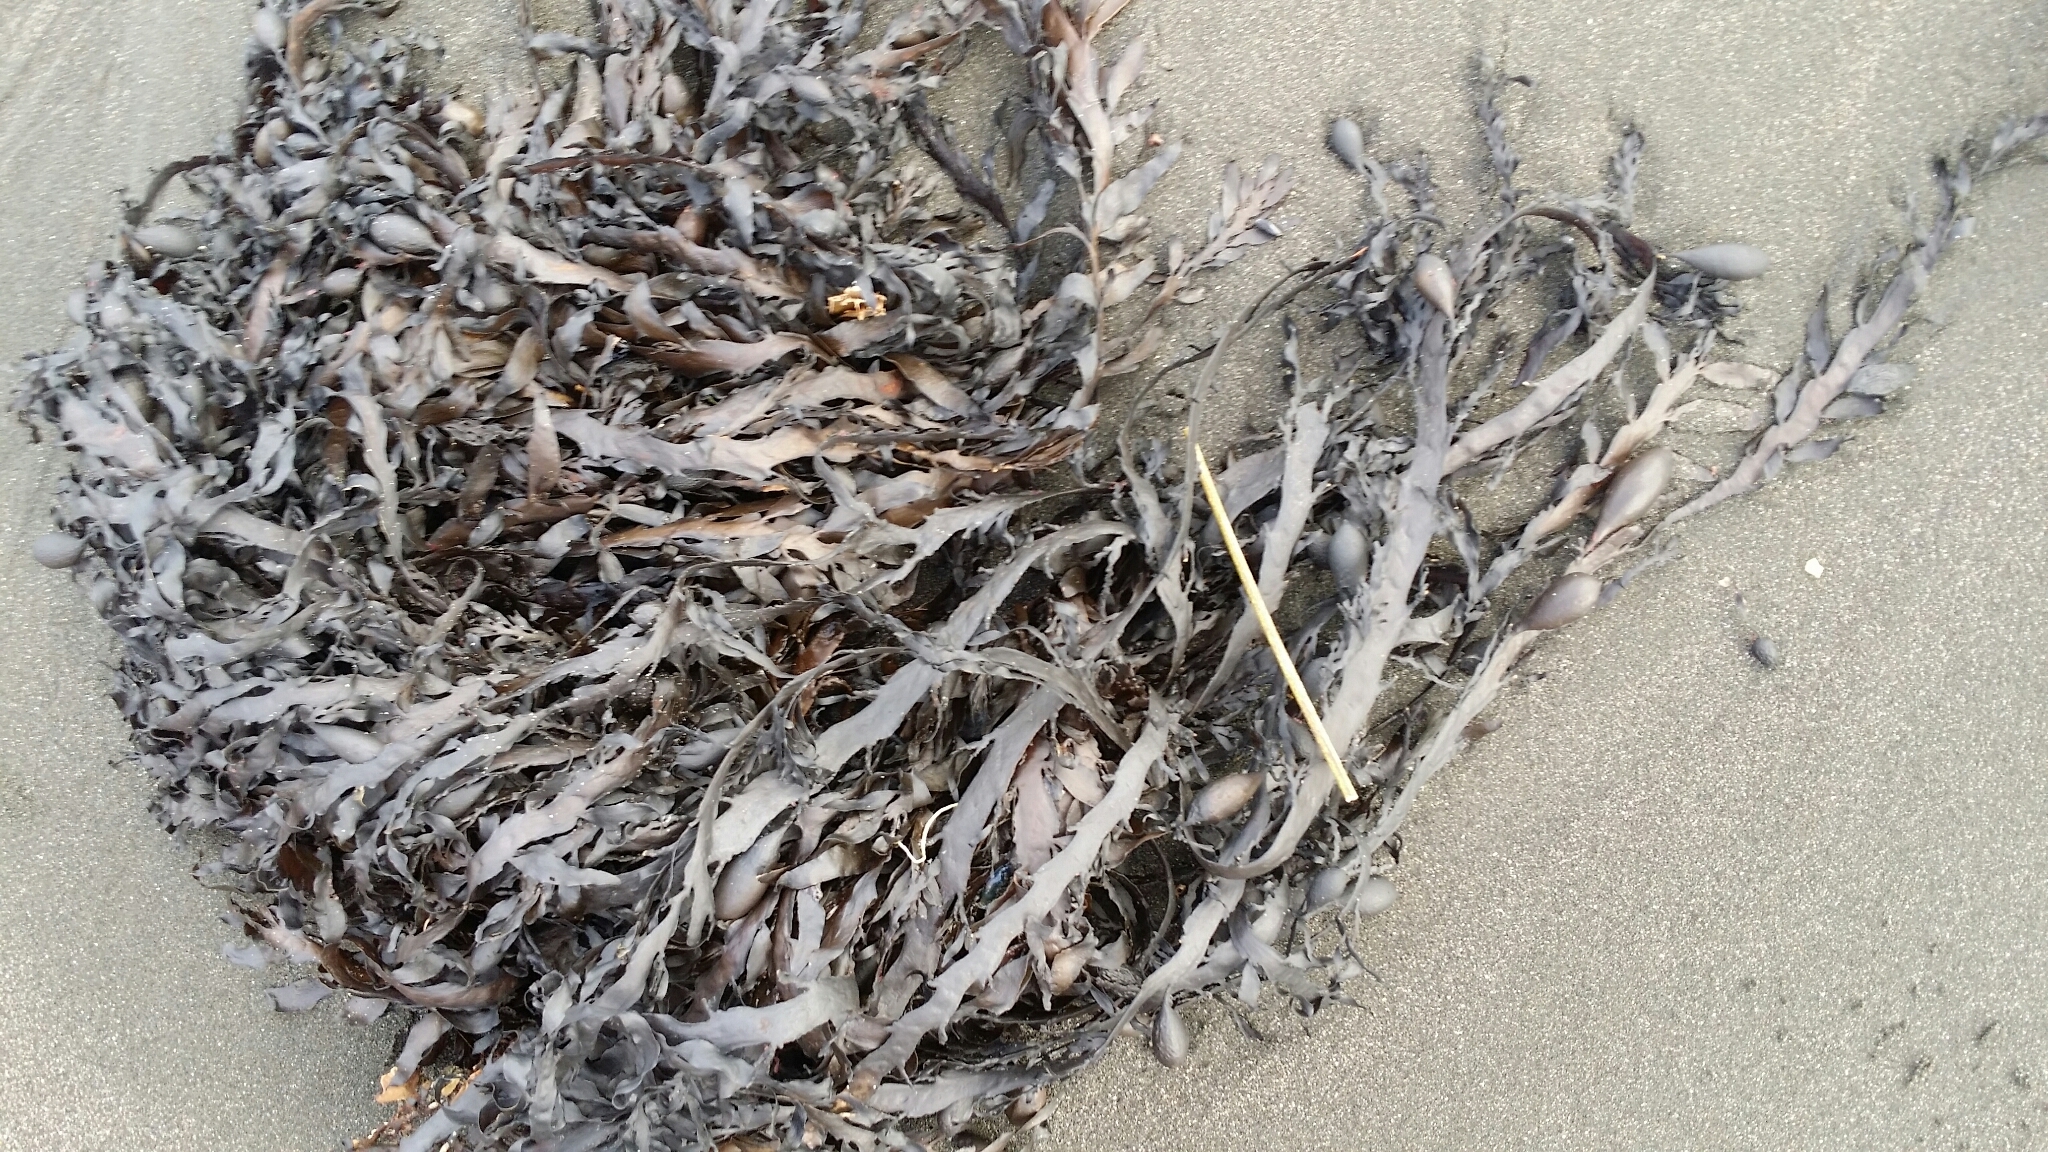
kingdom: Chromista
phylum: Ochrophyta
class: Phaeophyceae
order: Fucales
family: Sargassaceae
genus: Carpophyllum
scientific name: Carpophyllum maschalocarpum
